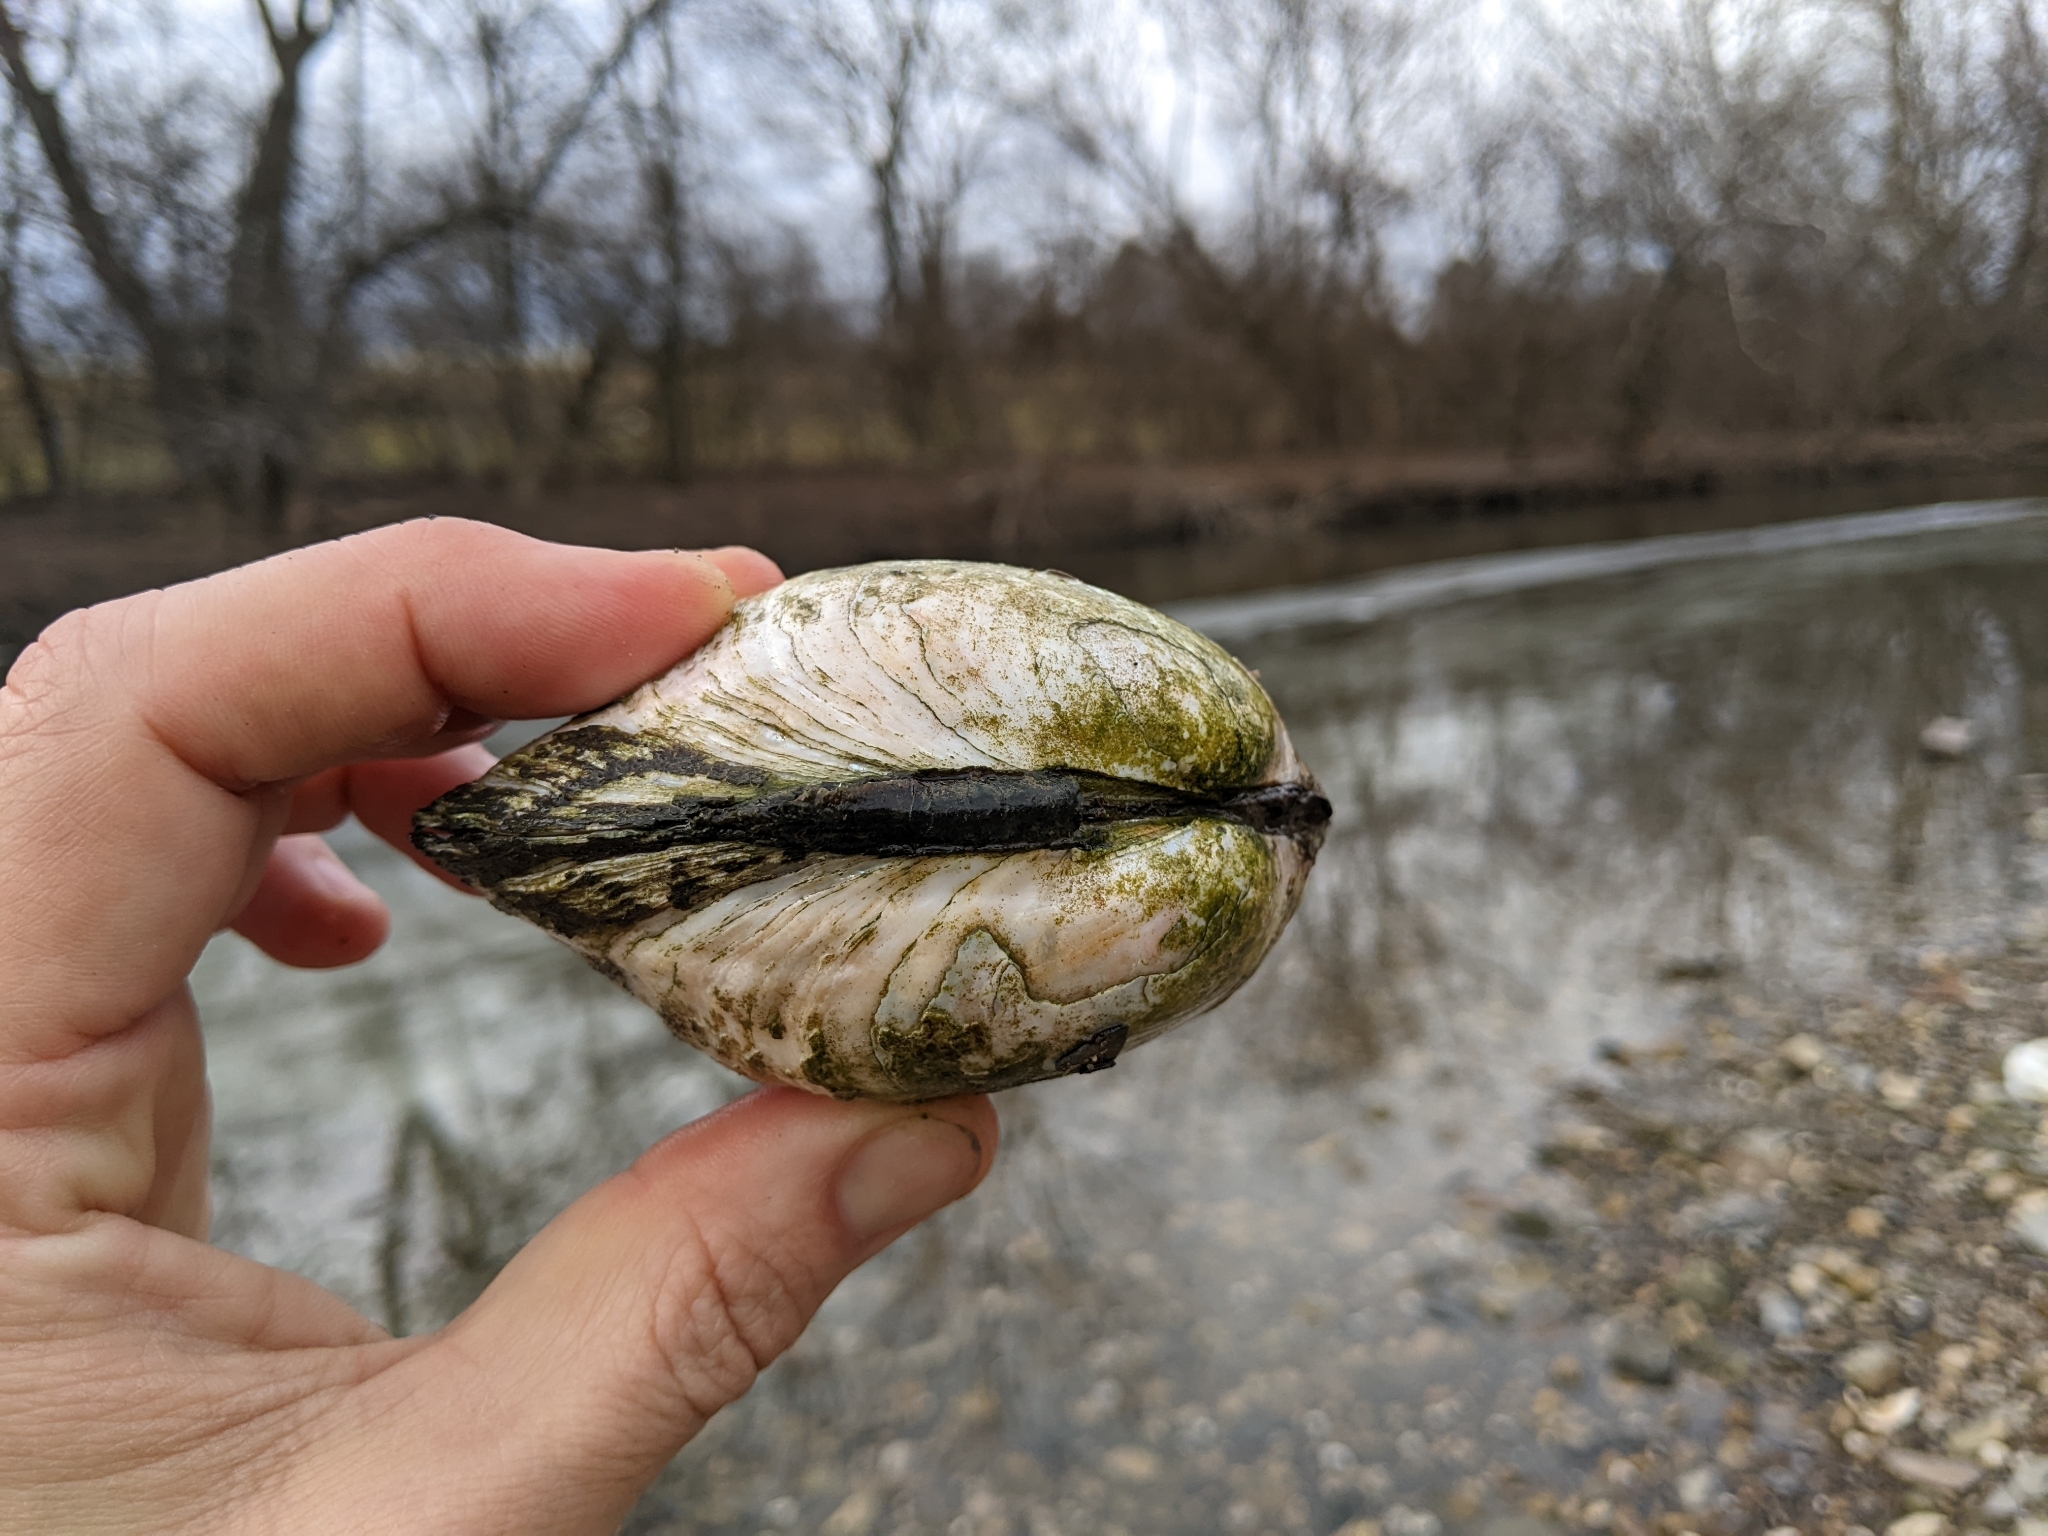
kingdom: Animalia
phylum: Mollusca
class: Bivalvia
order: Unionida
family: Unionidae
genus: Lampsilis
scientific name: Lampsilis siliquoidea
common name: Fatmucket
